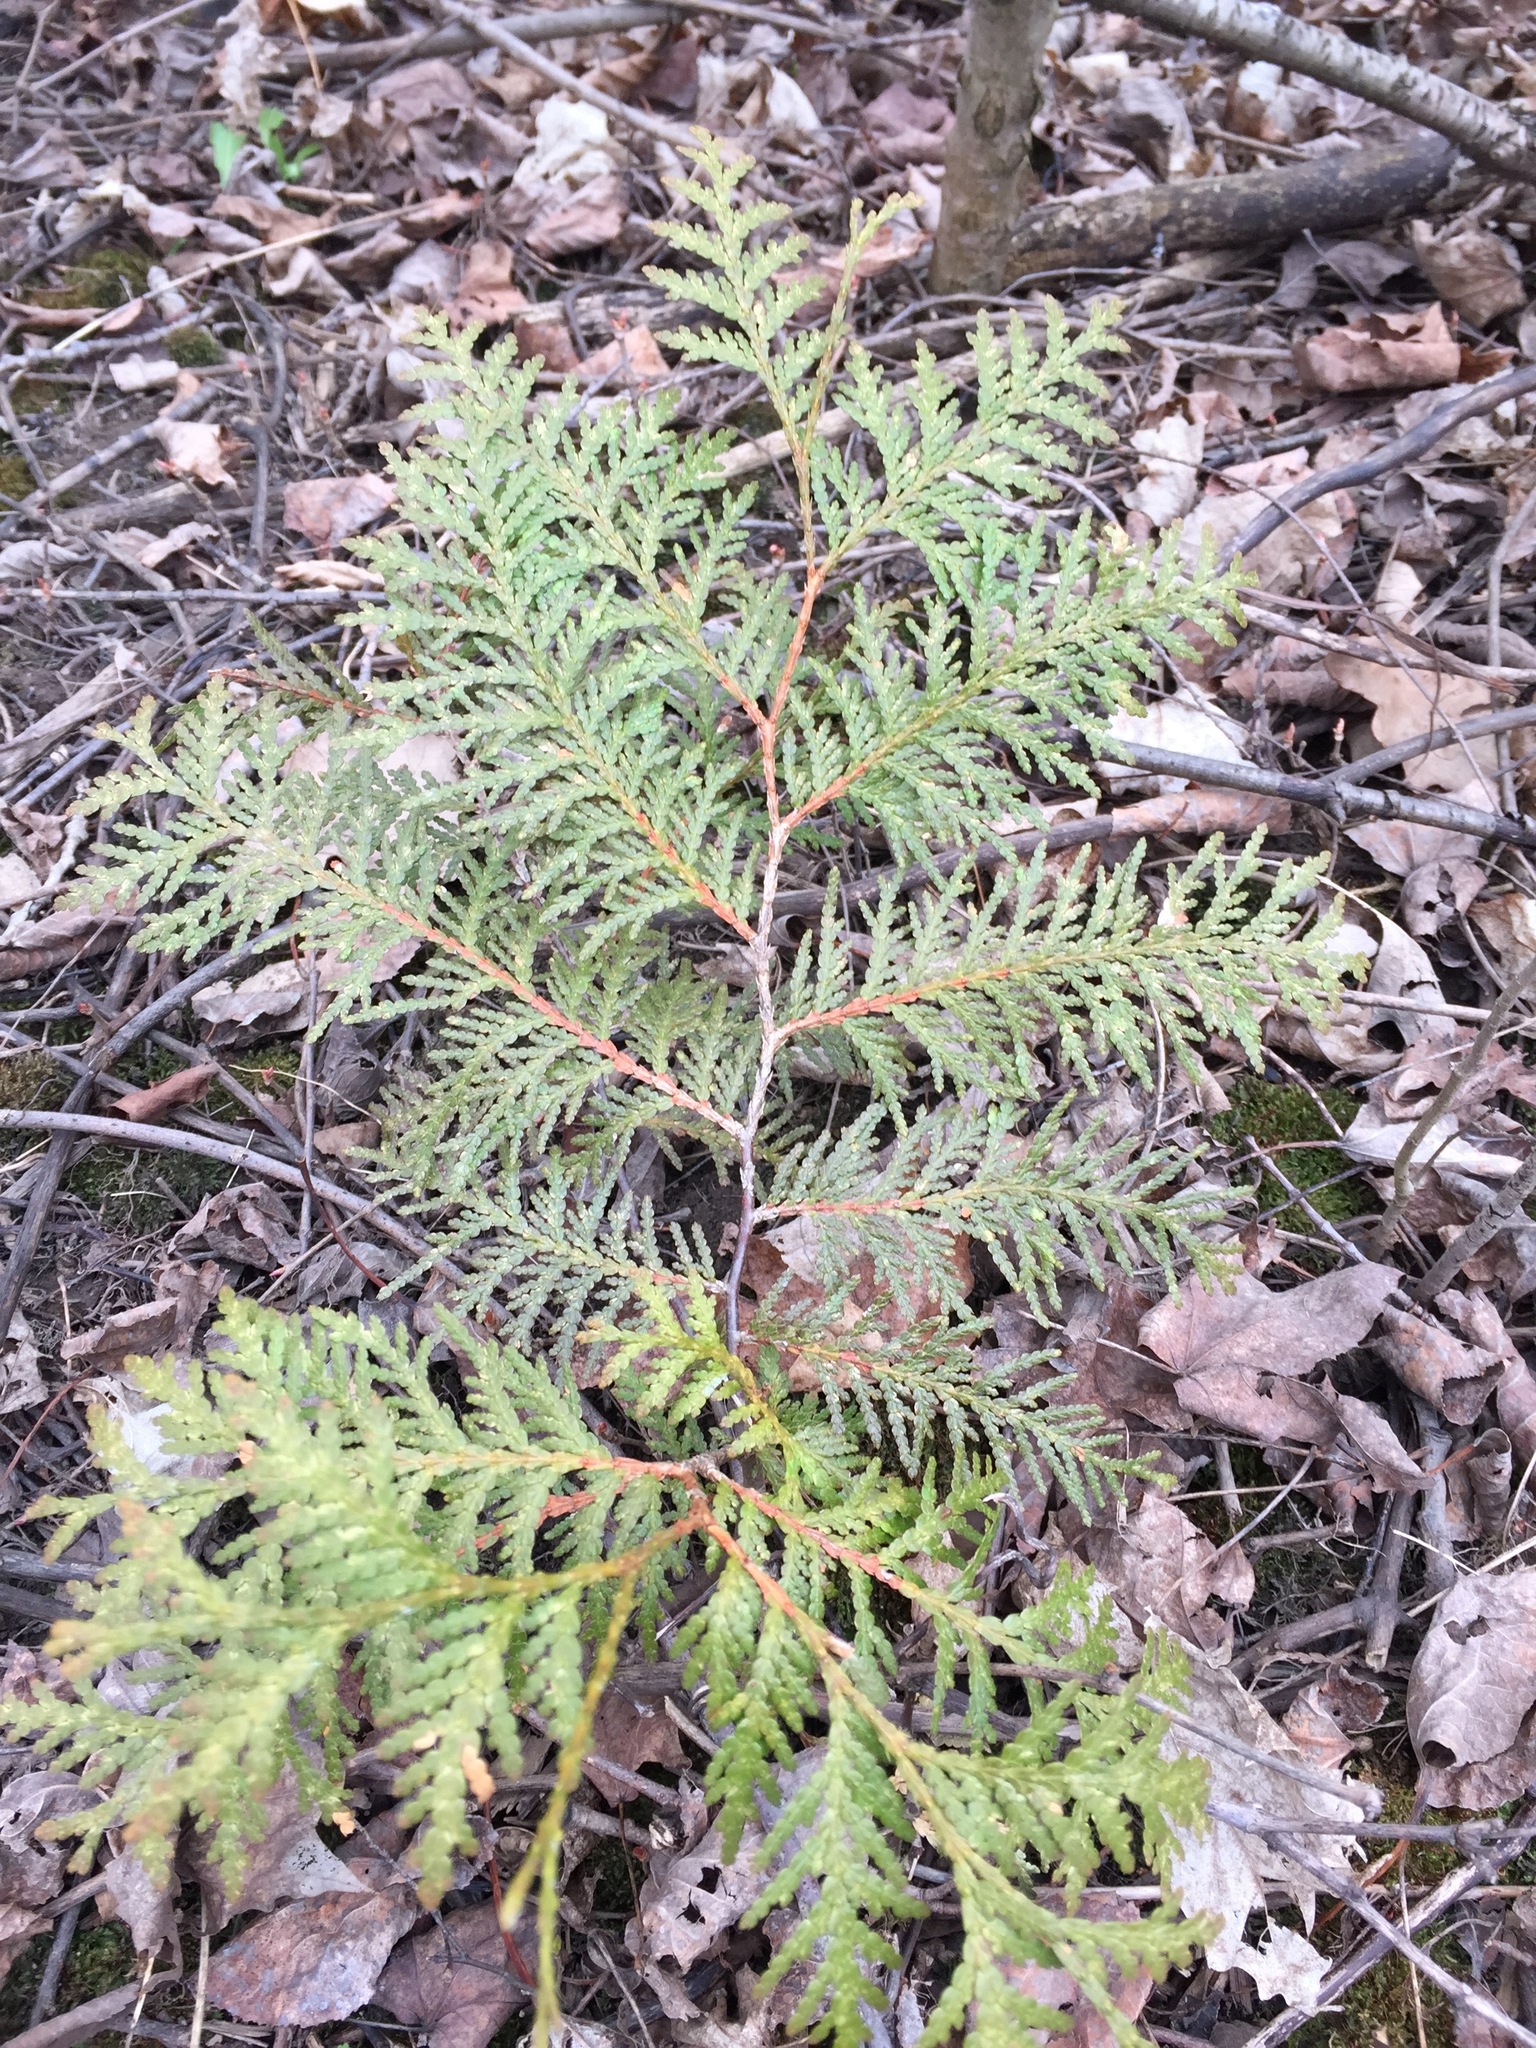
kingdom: Plantae
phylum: Tracheophyta
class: Pinopsida
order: Pinales
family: Cupressaceae
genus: Thuja
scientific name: Thuja occidentalis
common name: Northern white-cedar
